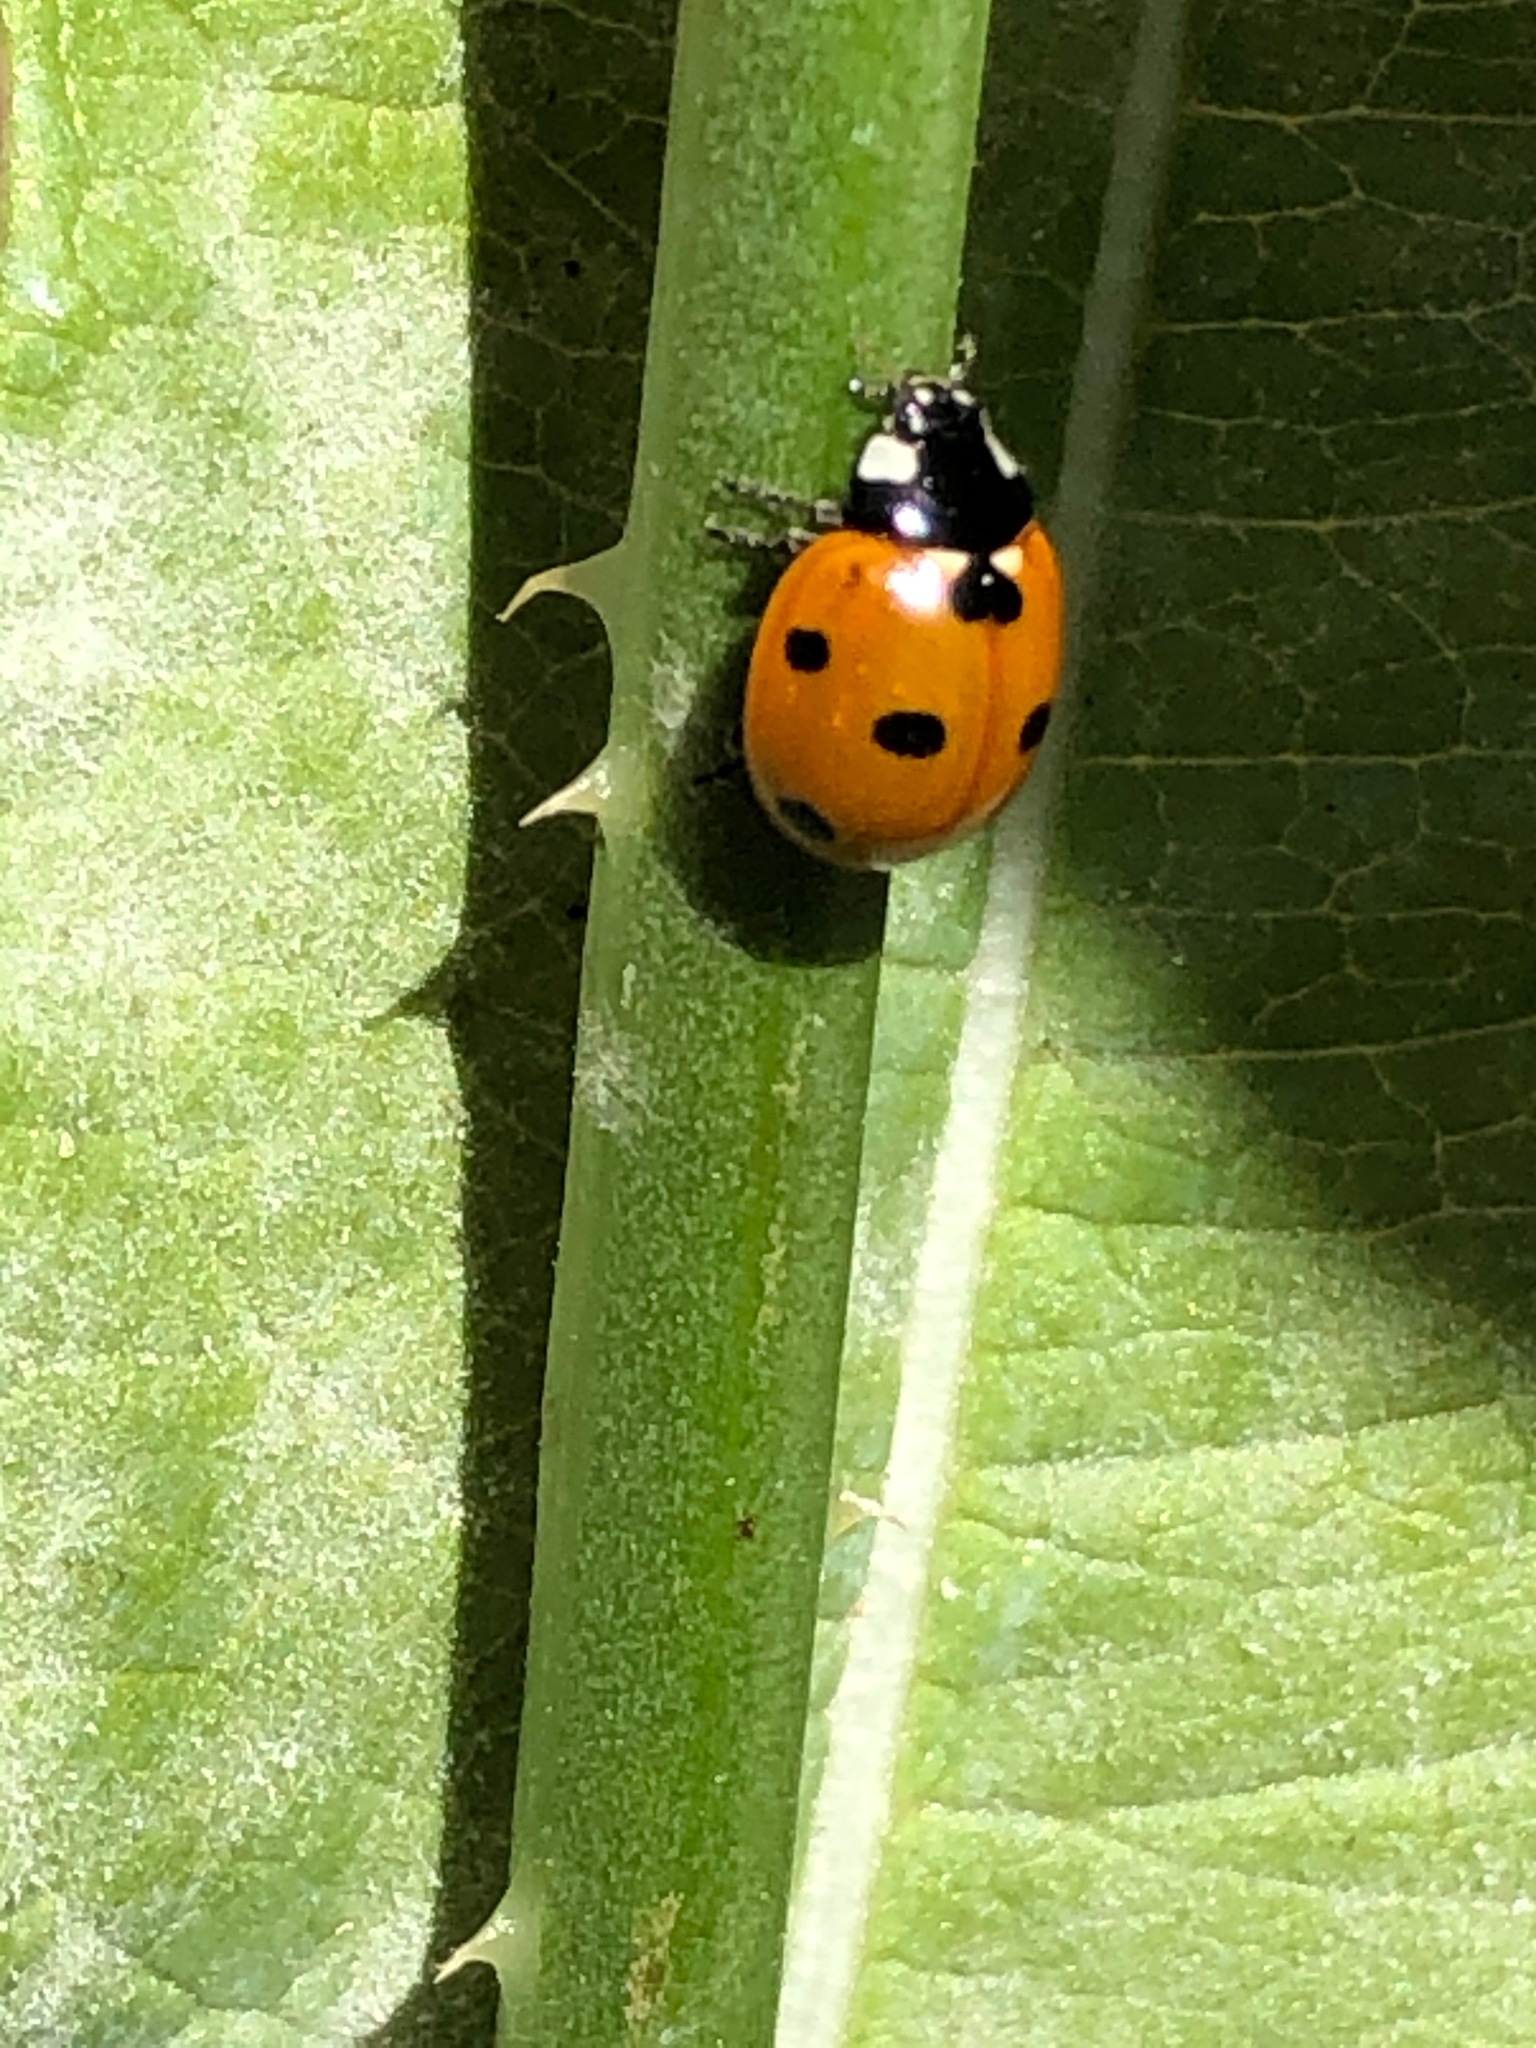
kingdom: Animalia
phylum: Arthropoda
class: Insecta
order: Coleoptera
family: Coccinellidae
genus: Coccinella
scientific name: Coccinella septempunctata
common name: Sevenspotted lady beetle
